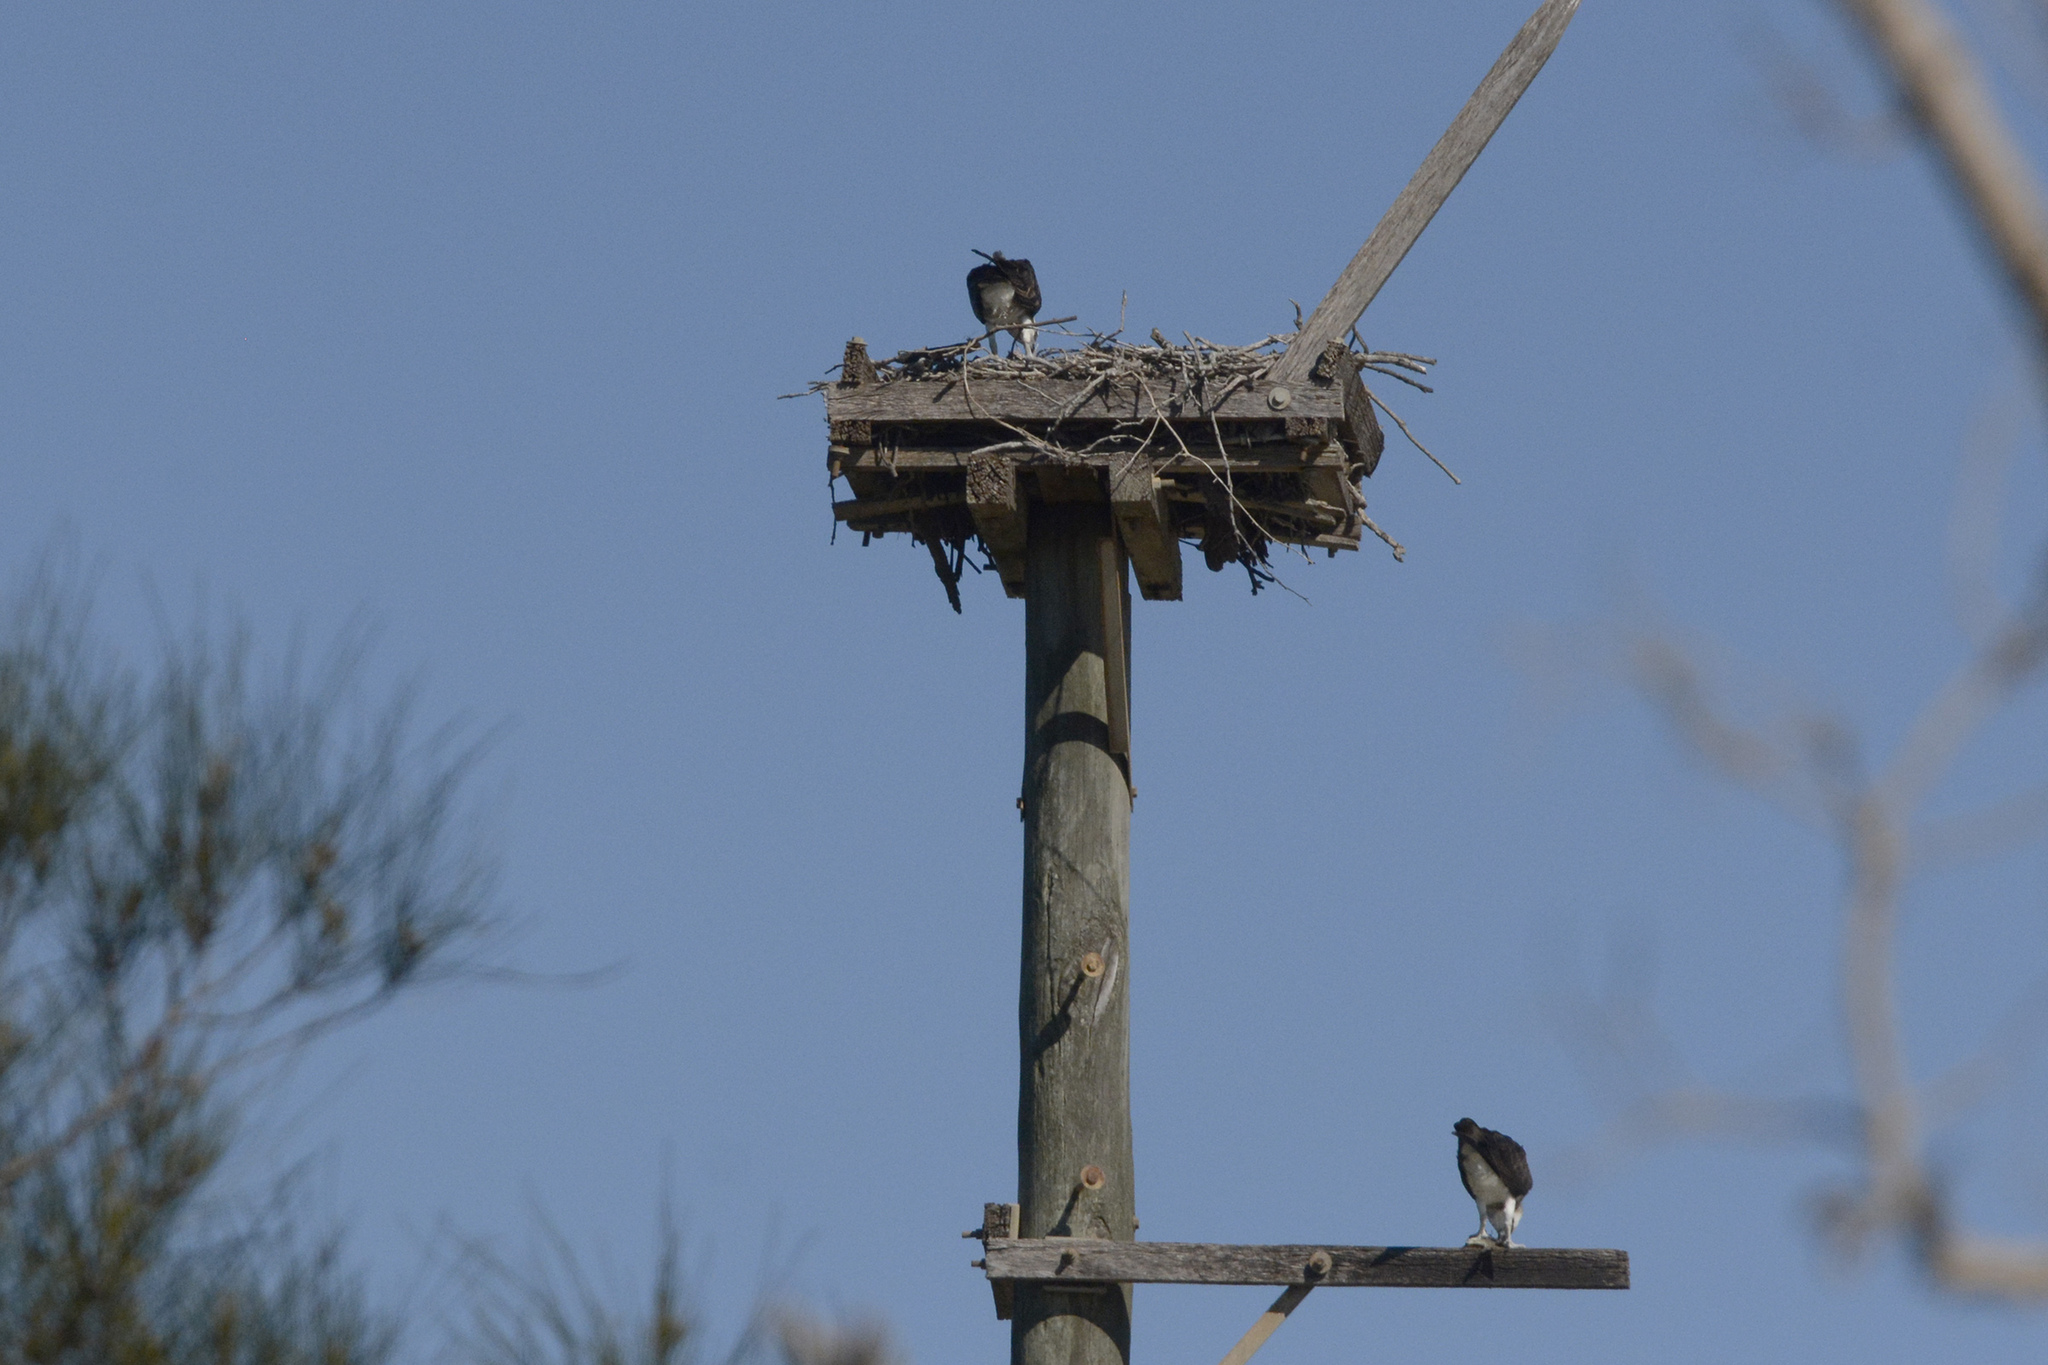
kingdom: Animalia
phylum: Chordata
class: Aves
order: Accipitriformes
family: Pandionidae
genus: Pandion
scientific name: Pandion haliaetus
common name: Osprey
